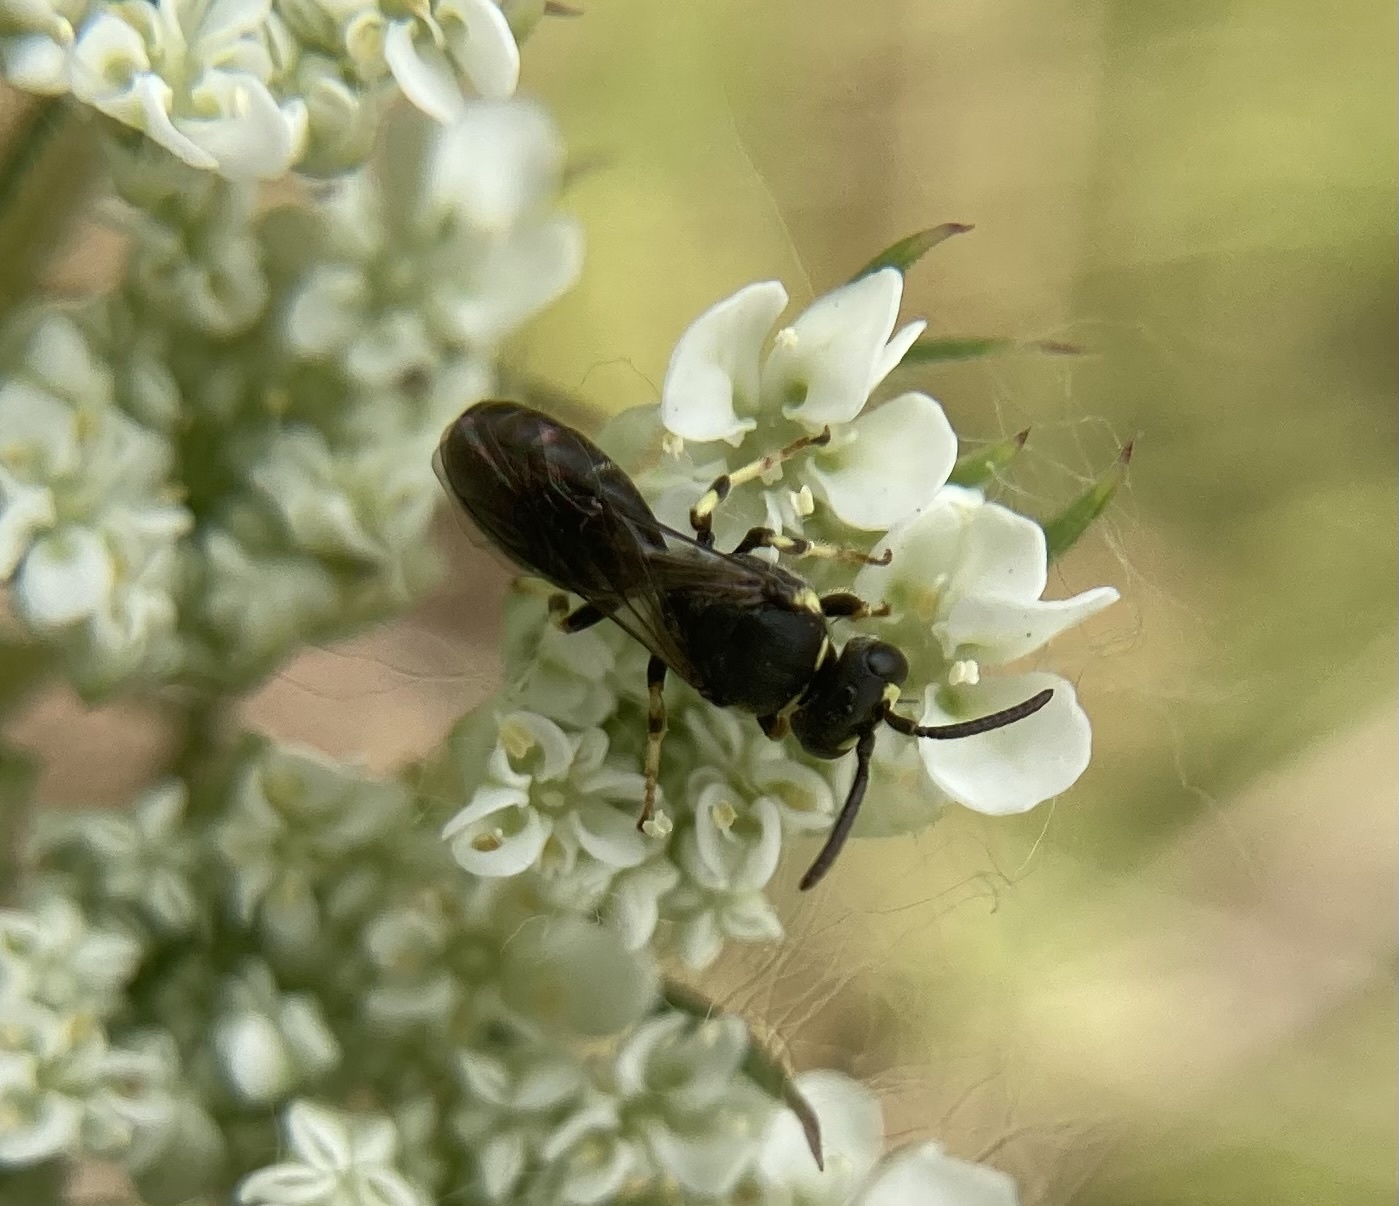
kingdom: Animalia
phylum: Arthropoda
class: Insecta
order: Hymenoptera
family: Colletidae
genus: Hylaeus
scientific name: Hylaeus
